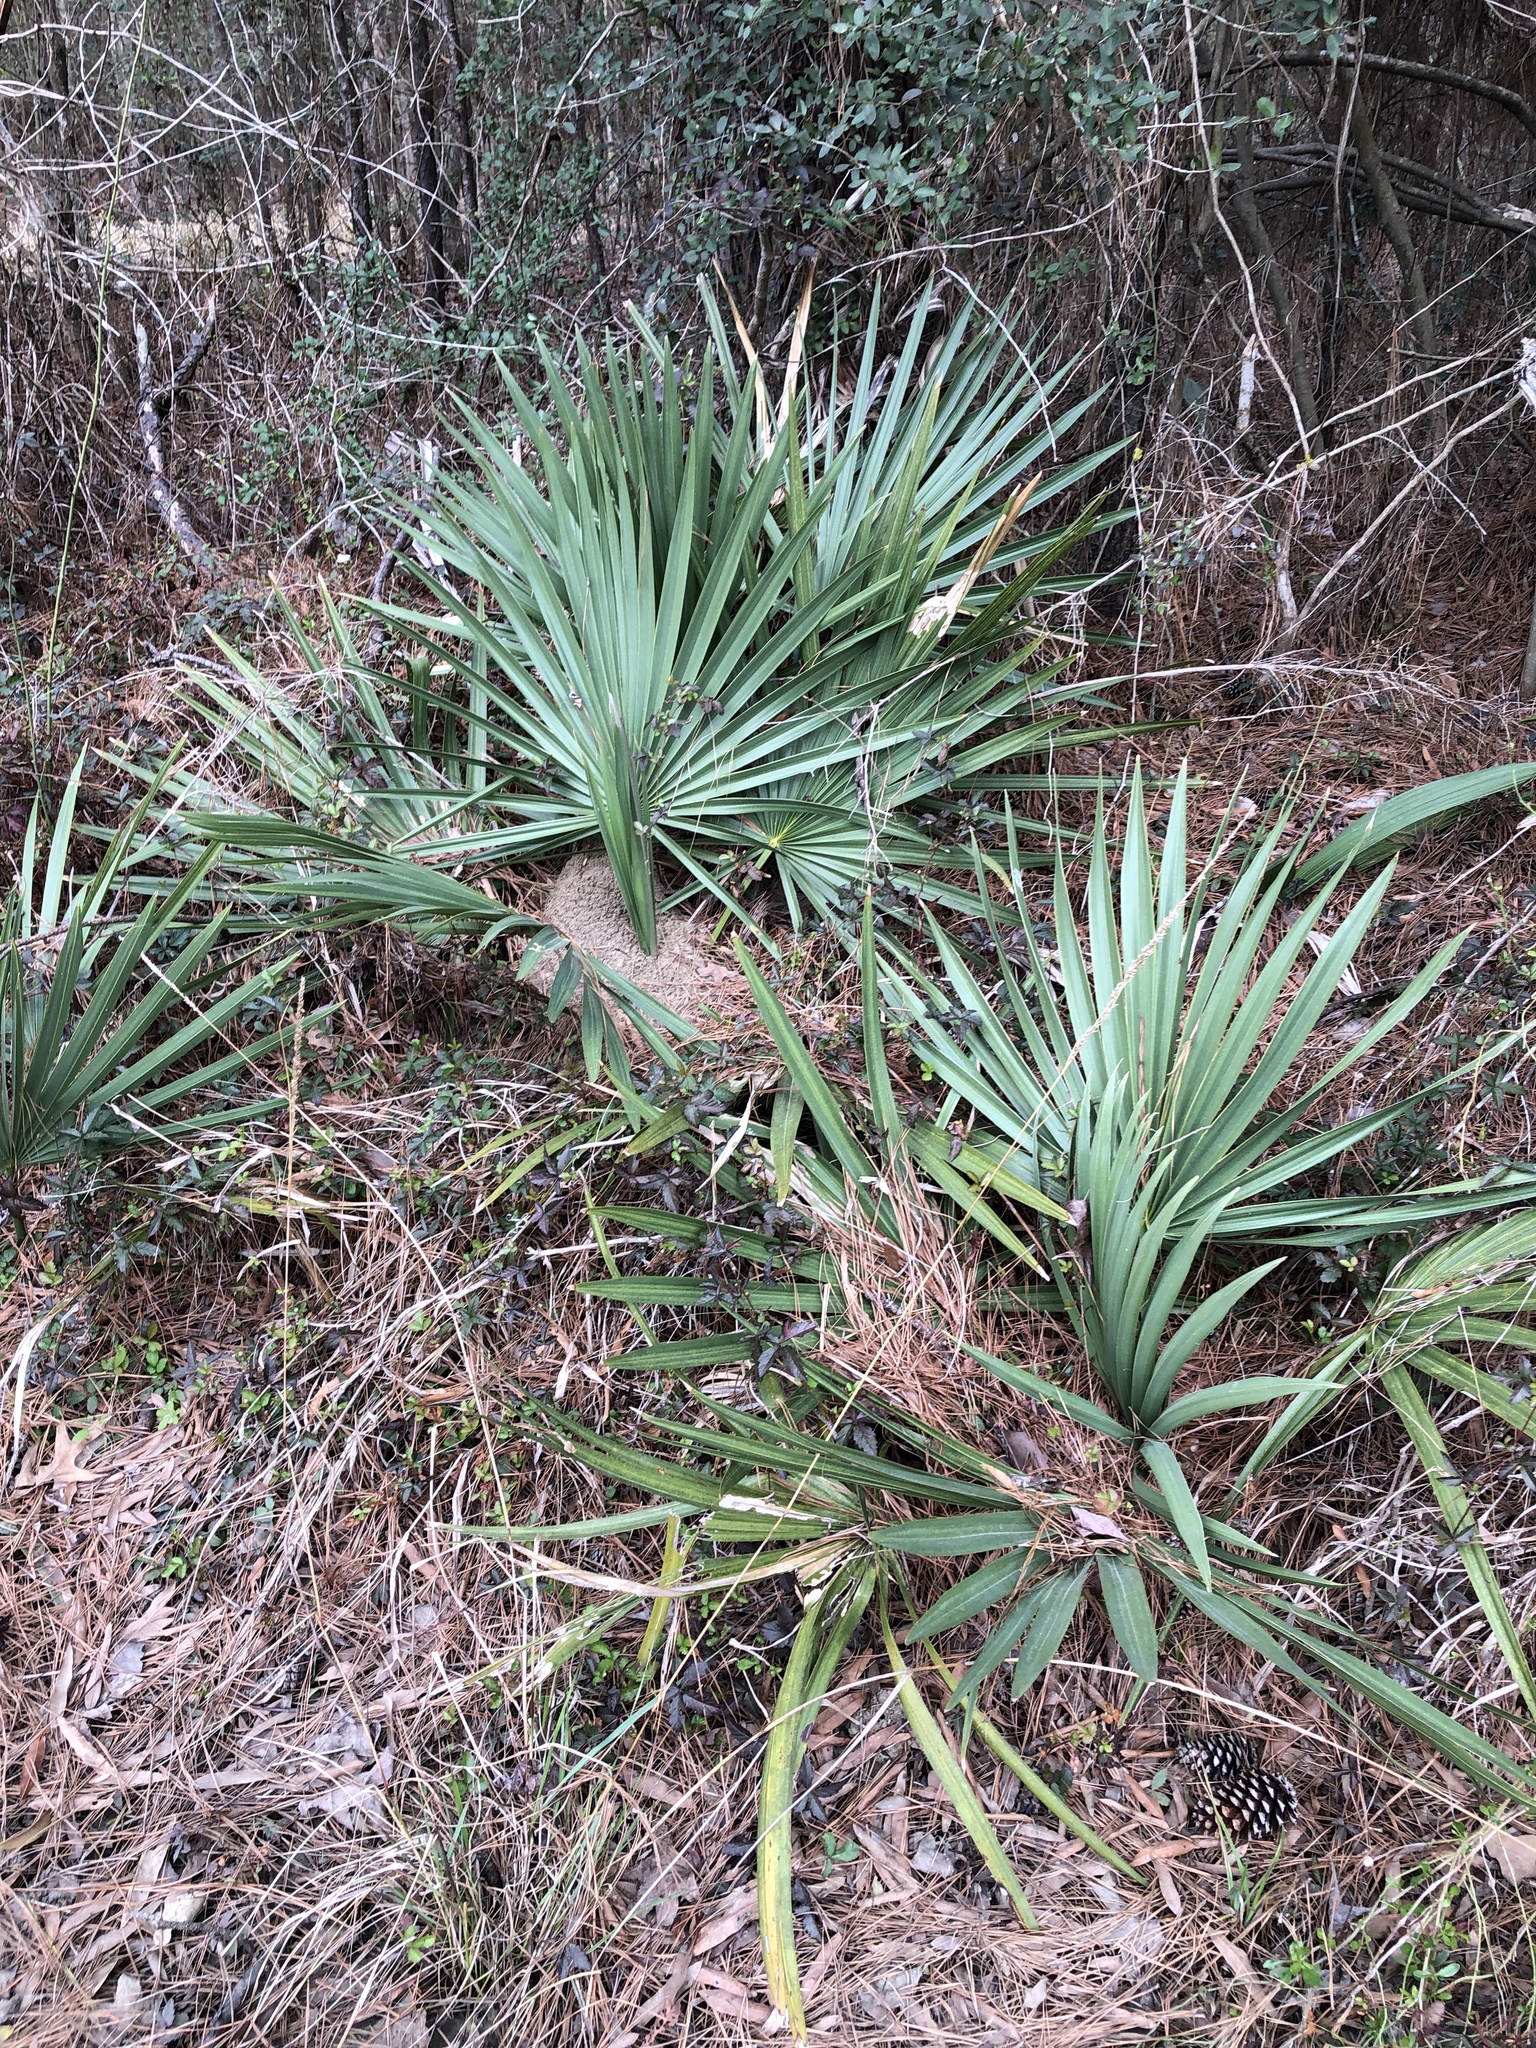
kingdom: Plantae
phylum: Tracheophyta
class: Liliopsida
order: Arecales
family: Arecaceae
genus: Sabal
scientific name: Sabal minor
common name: Dwarf palmetto
